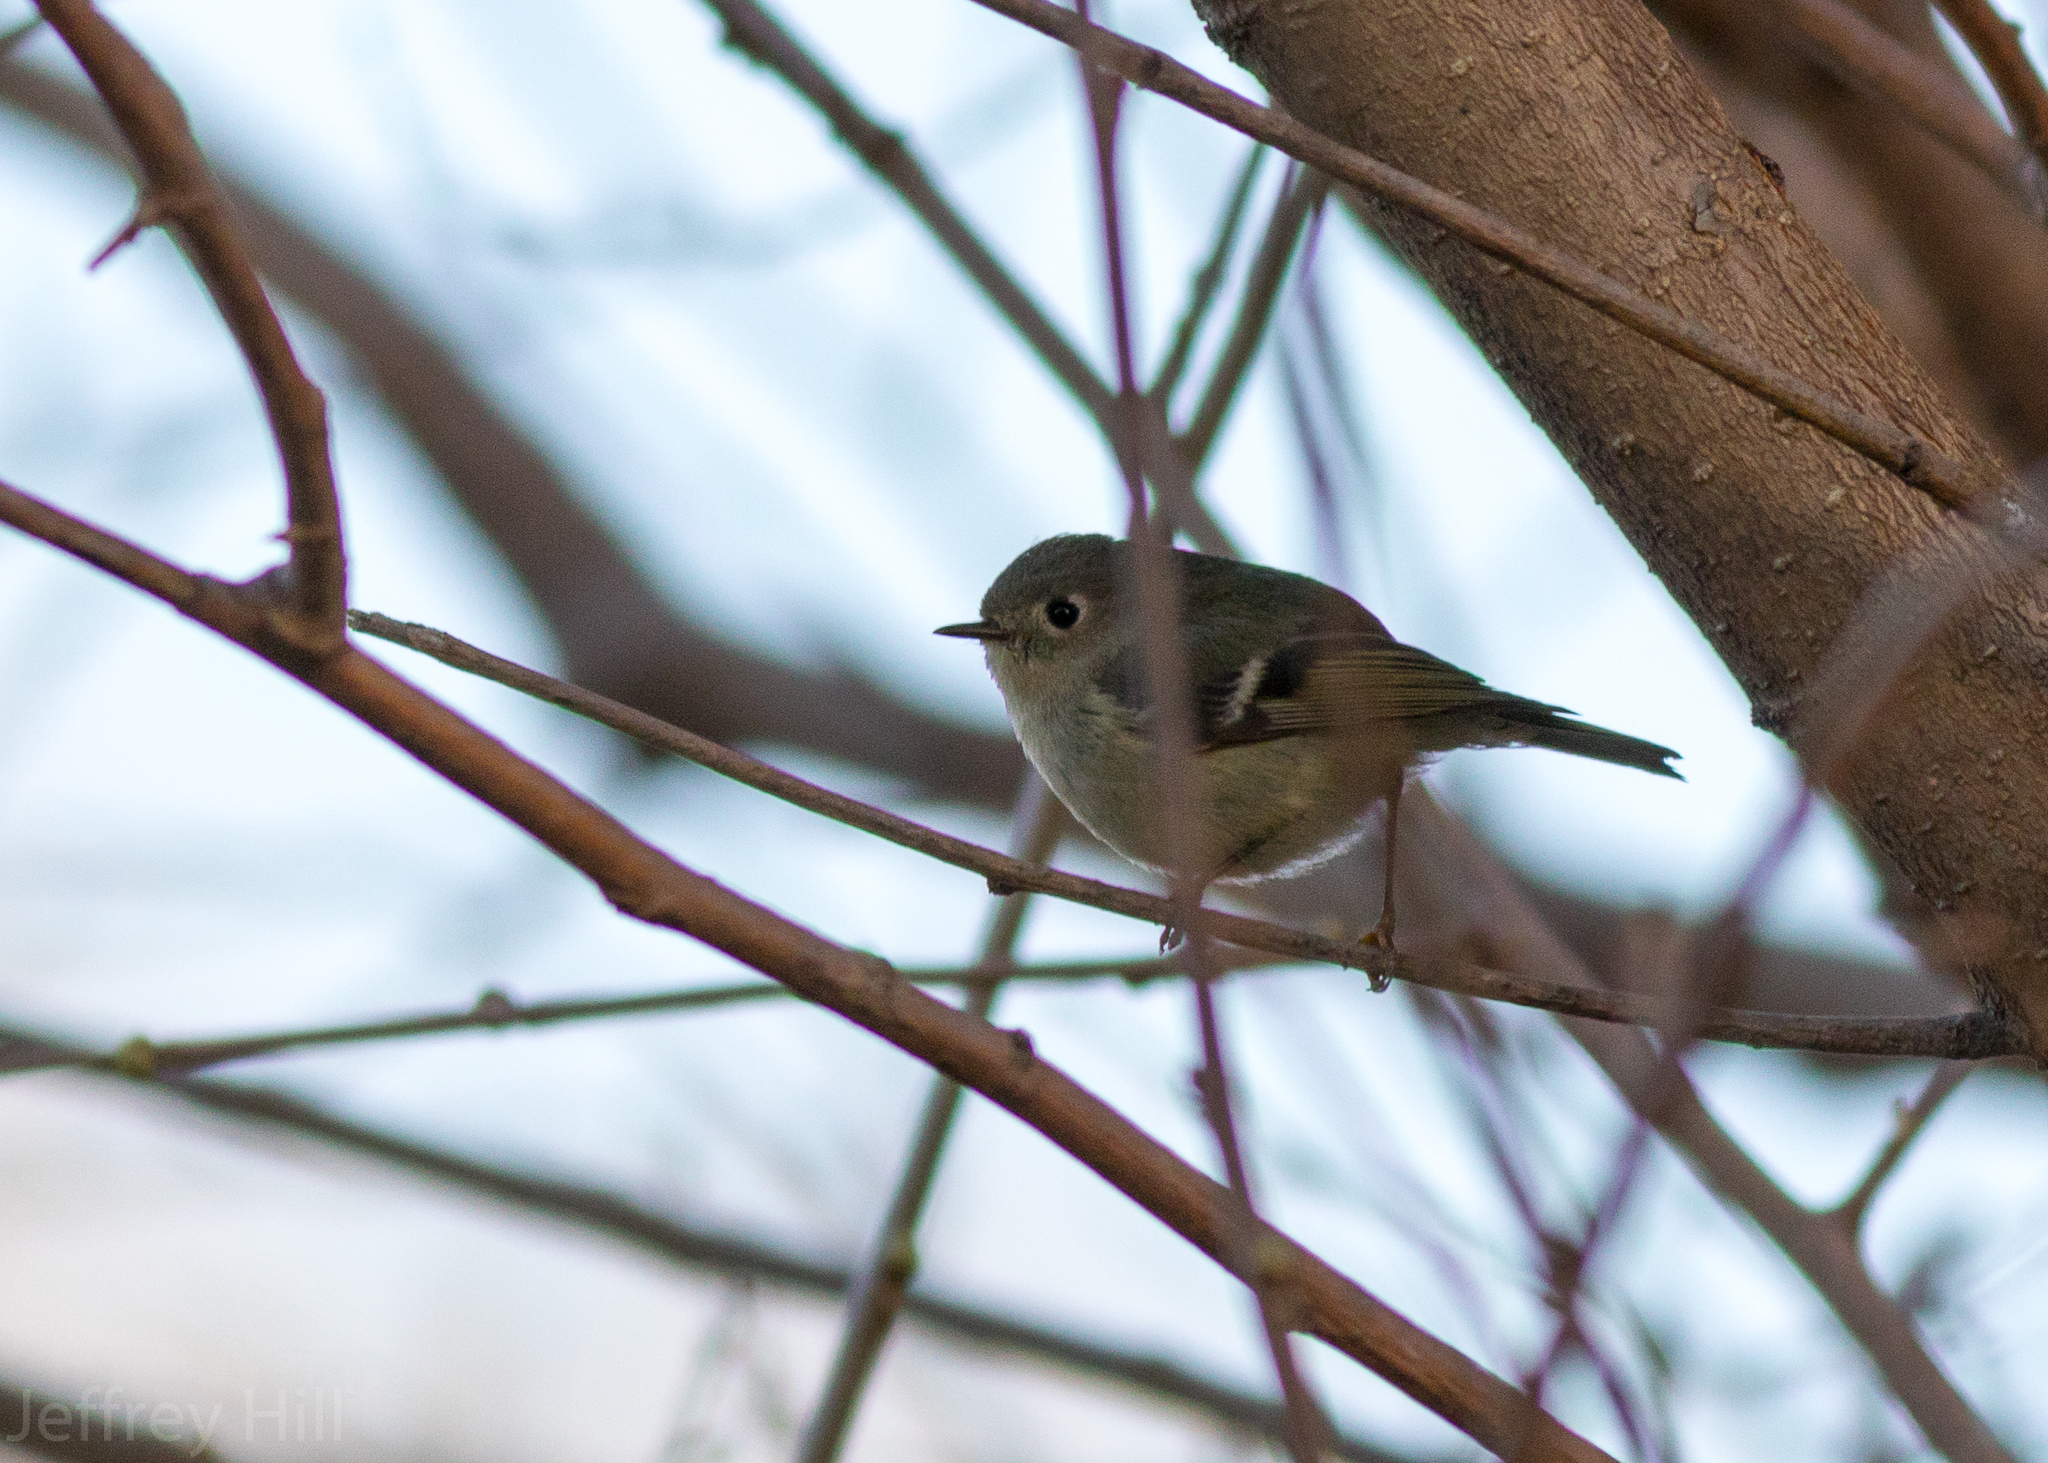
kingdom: Animalia
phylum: Chordata
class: Aves
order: Passeriformes
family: Regulidae
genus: Regulus
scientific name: Regulus calendula
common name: Ruby-crowned kinglet
